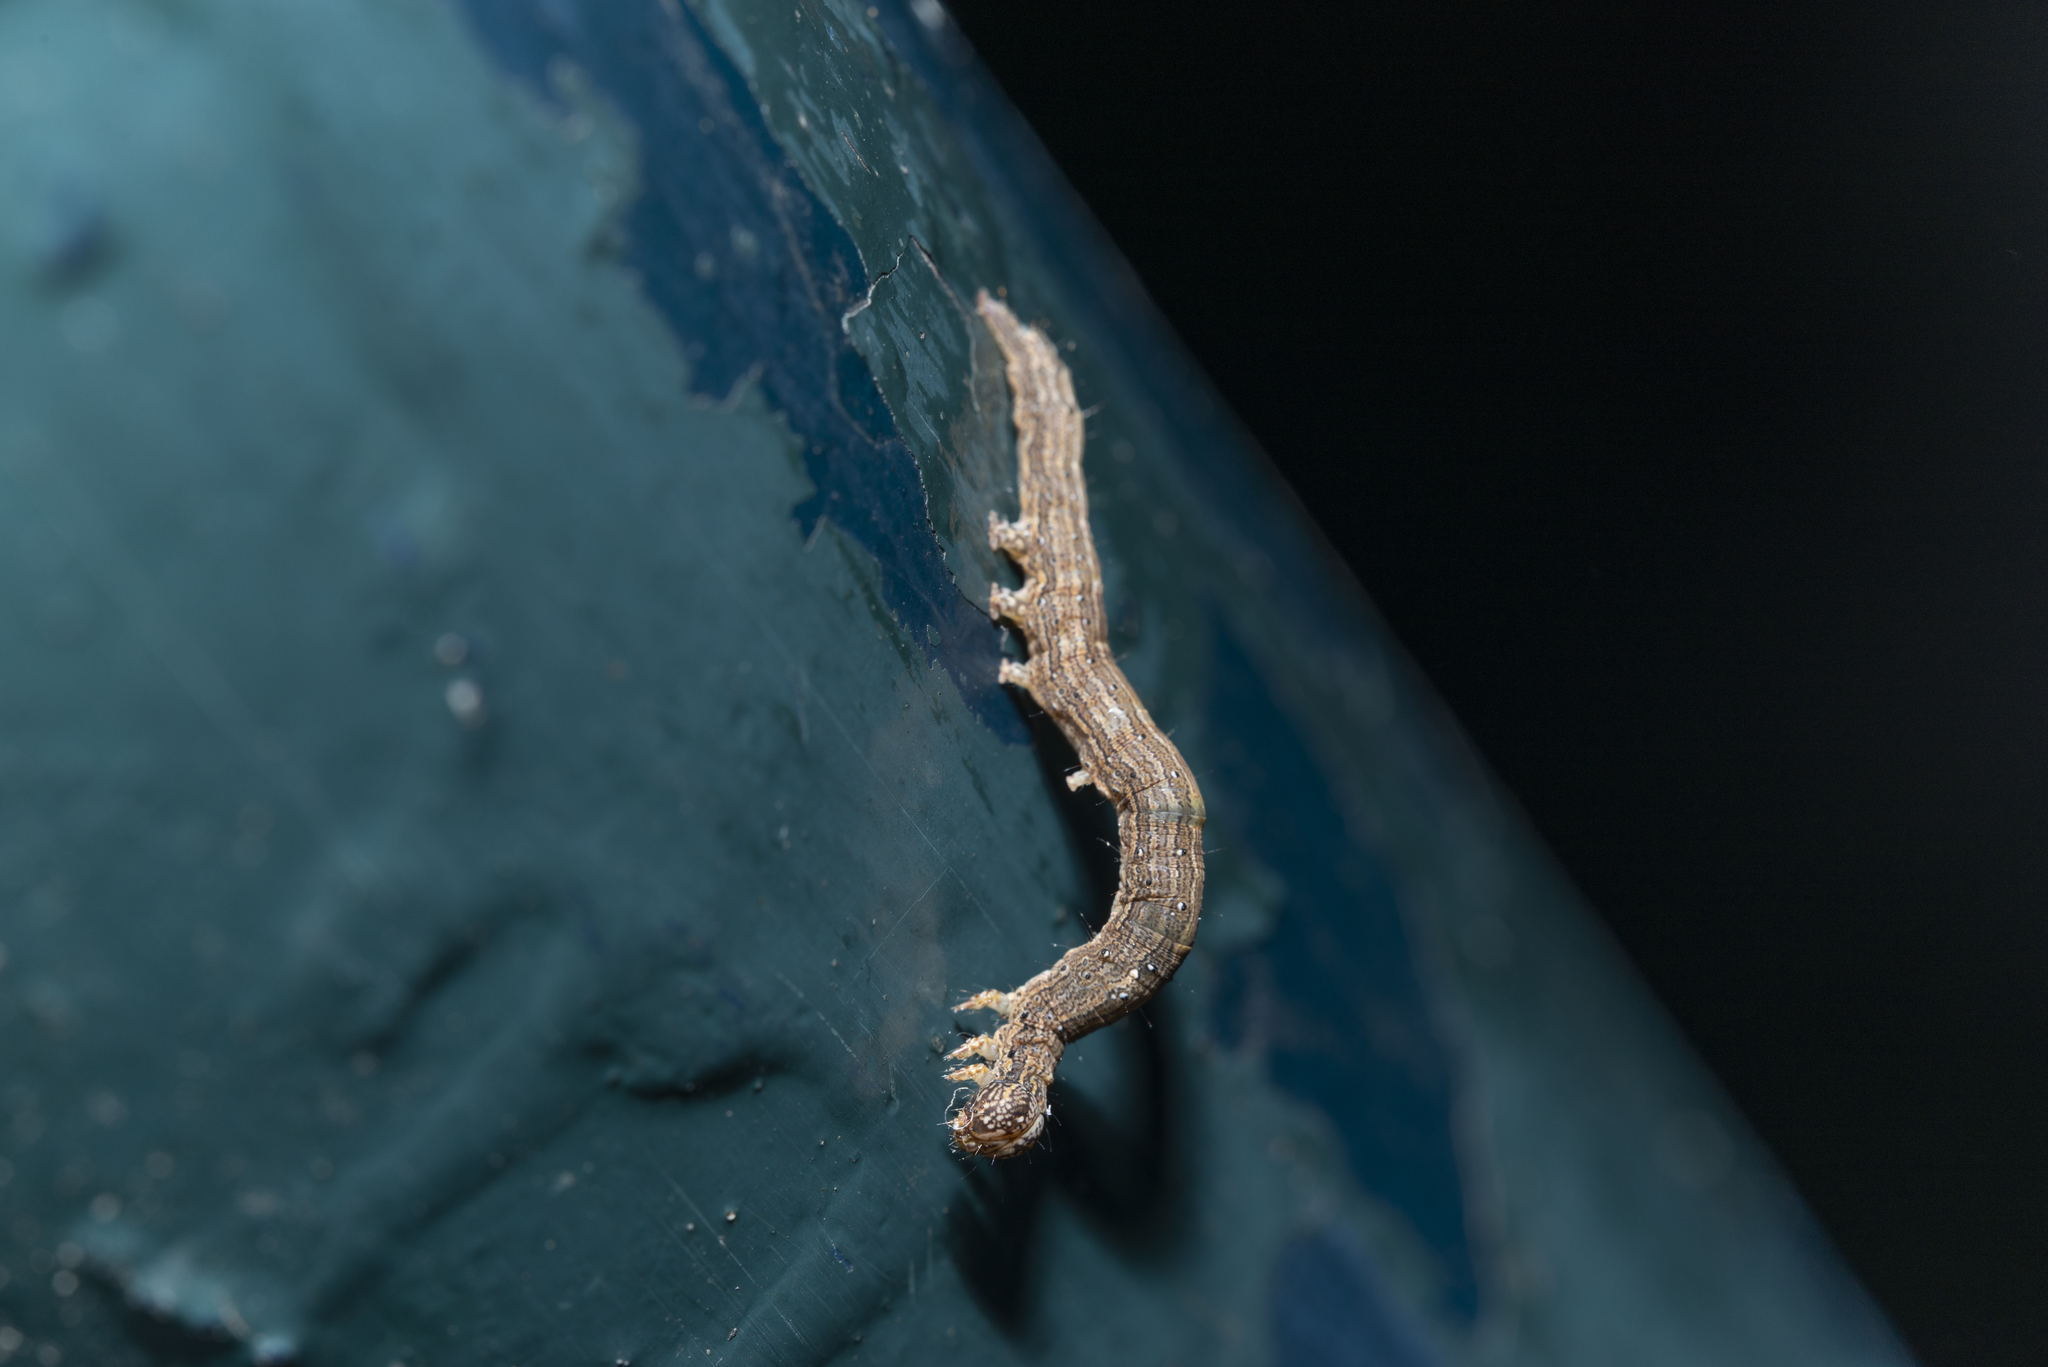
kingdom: Animalia
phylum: Arthropoda
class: Insecta
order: Lepidoptera
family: Erebidae
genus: Dysgonia
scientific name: Dysgonia stuposa
